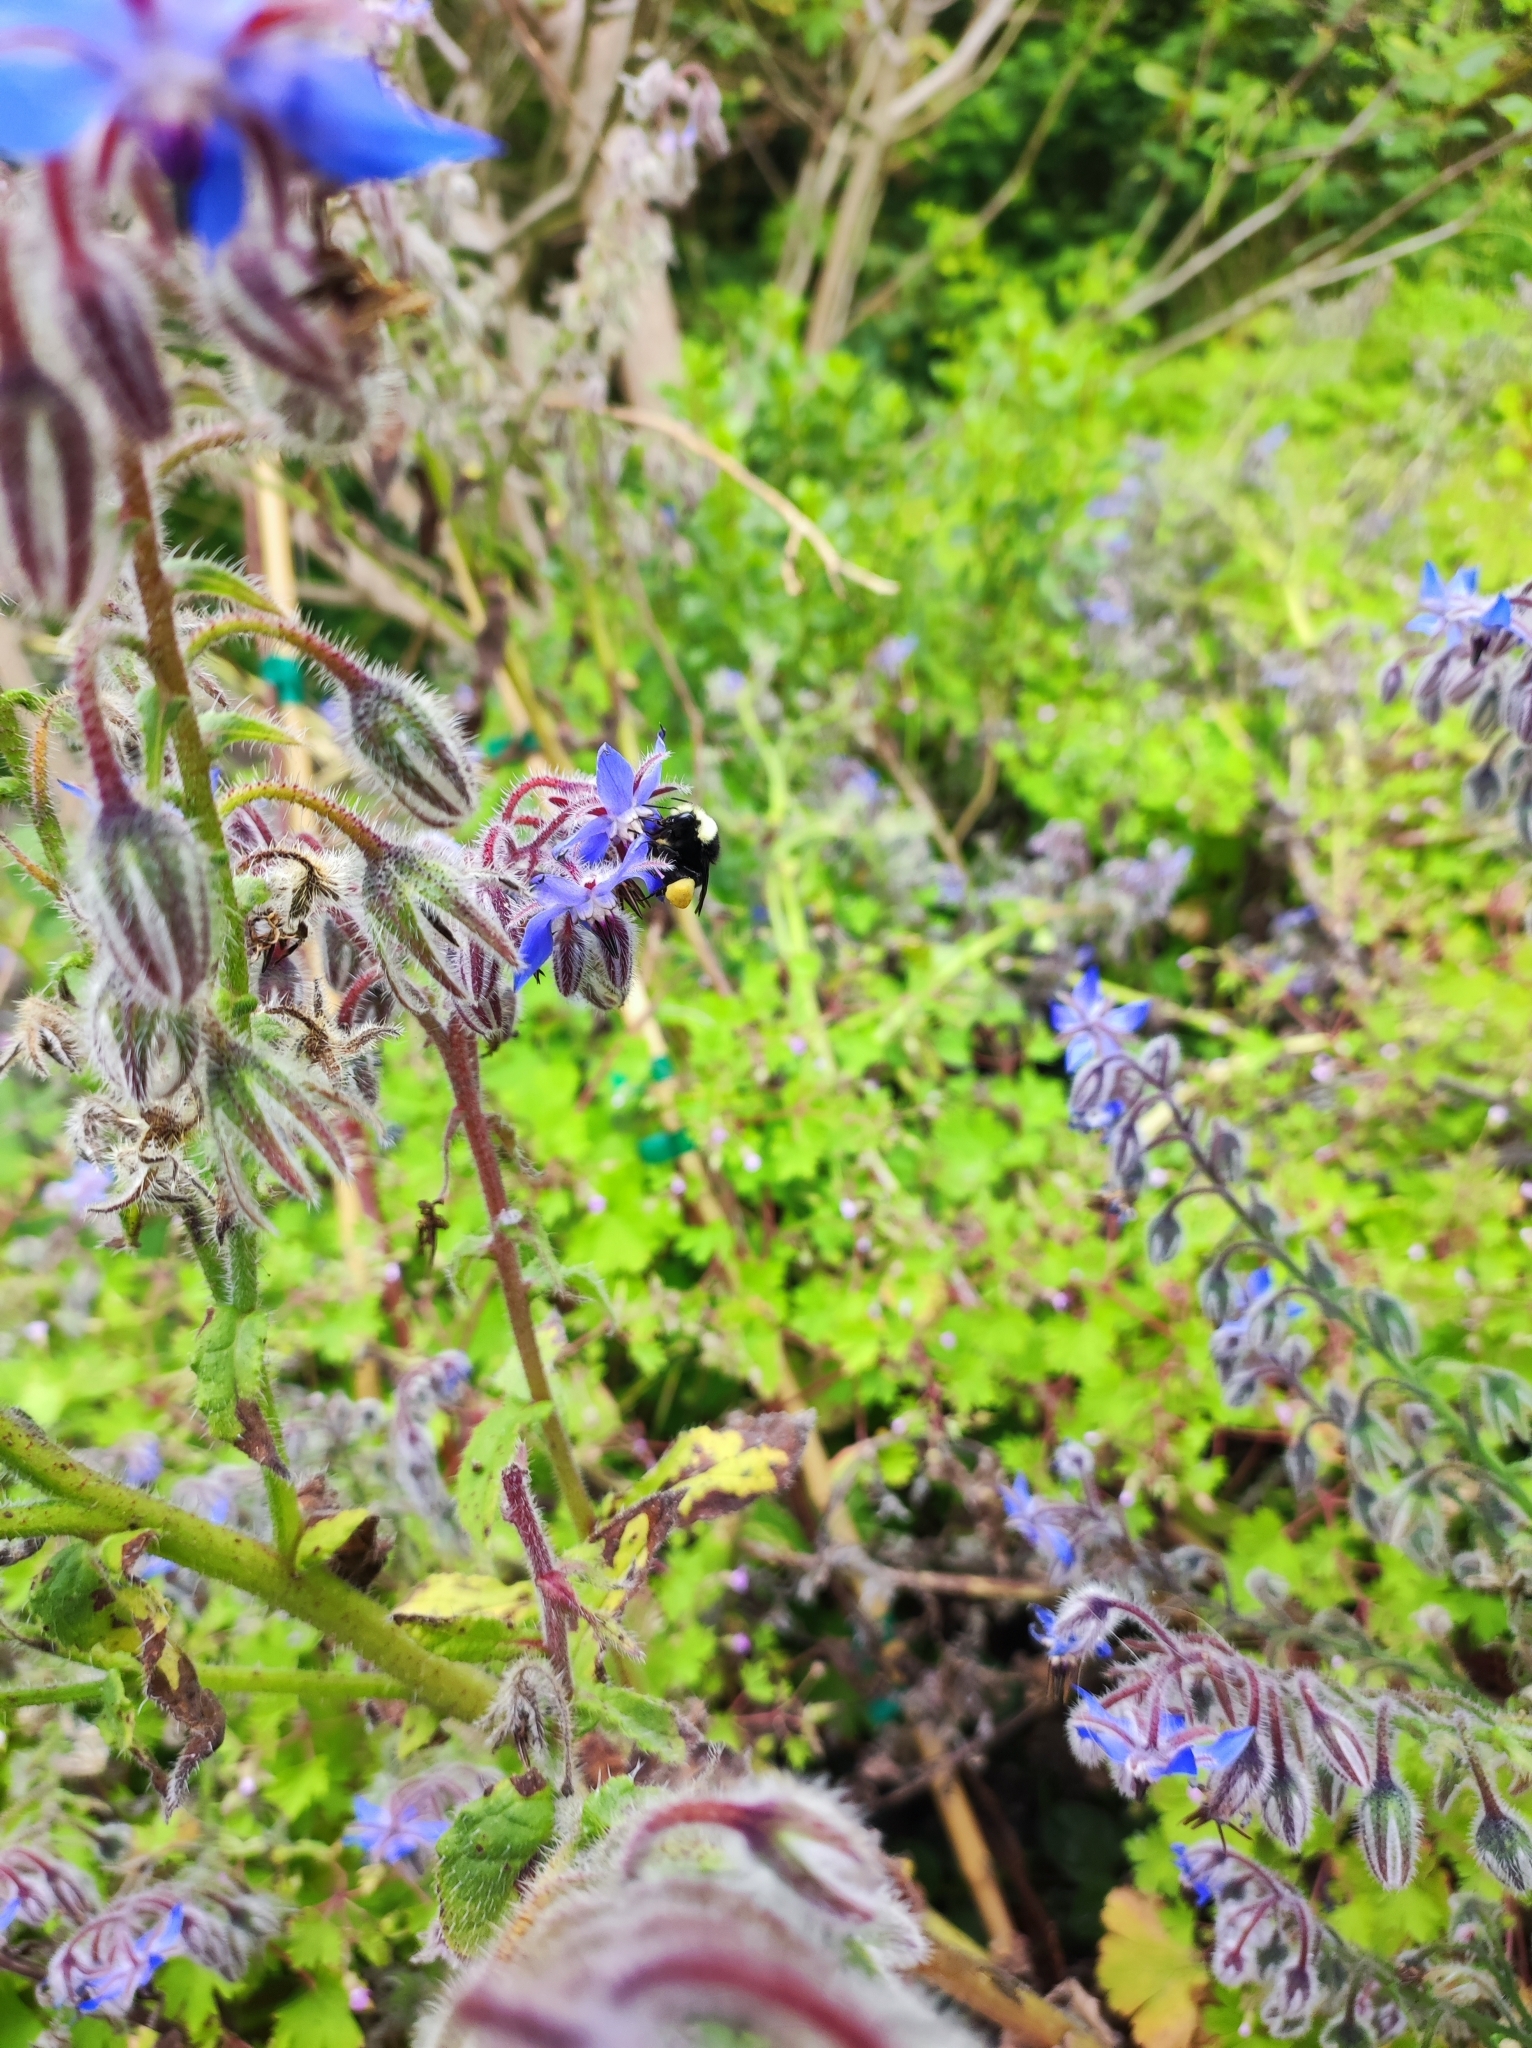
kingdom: Animalia
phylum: Arthropoda
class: Insecta
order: Hymenoptera
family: Apidae
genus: Bombus
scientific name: Bombus vosnesenskii
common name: Vosnesensky bumble bee
